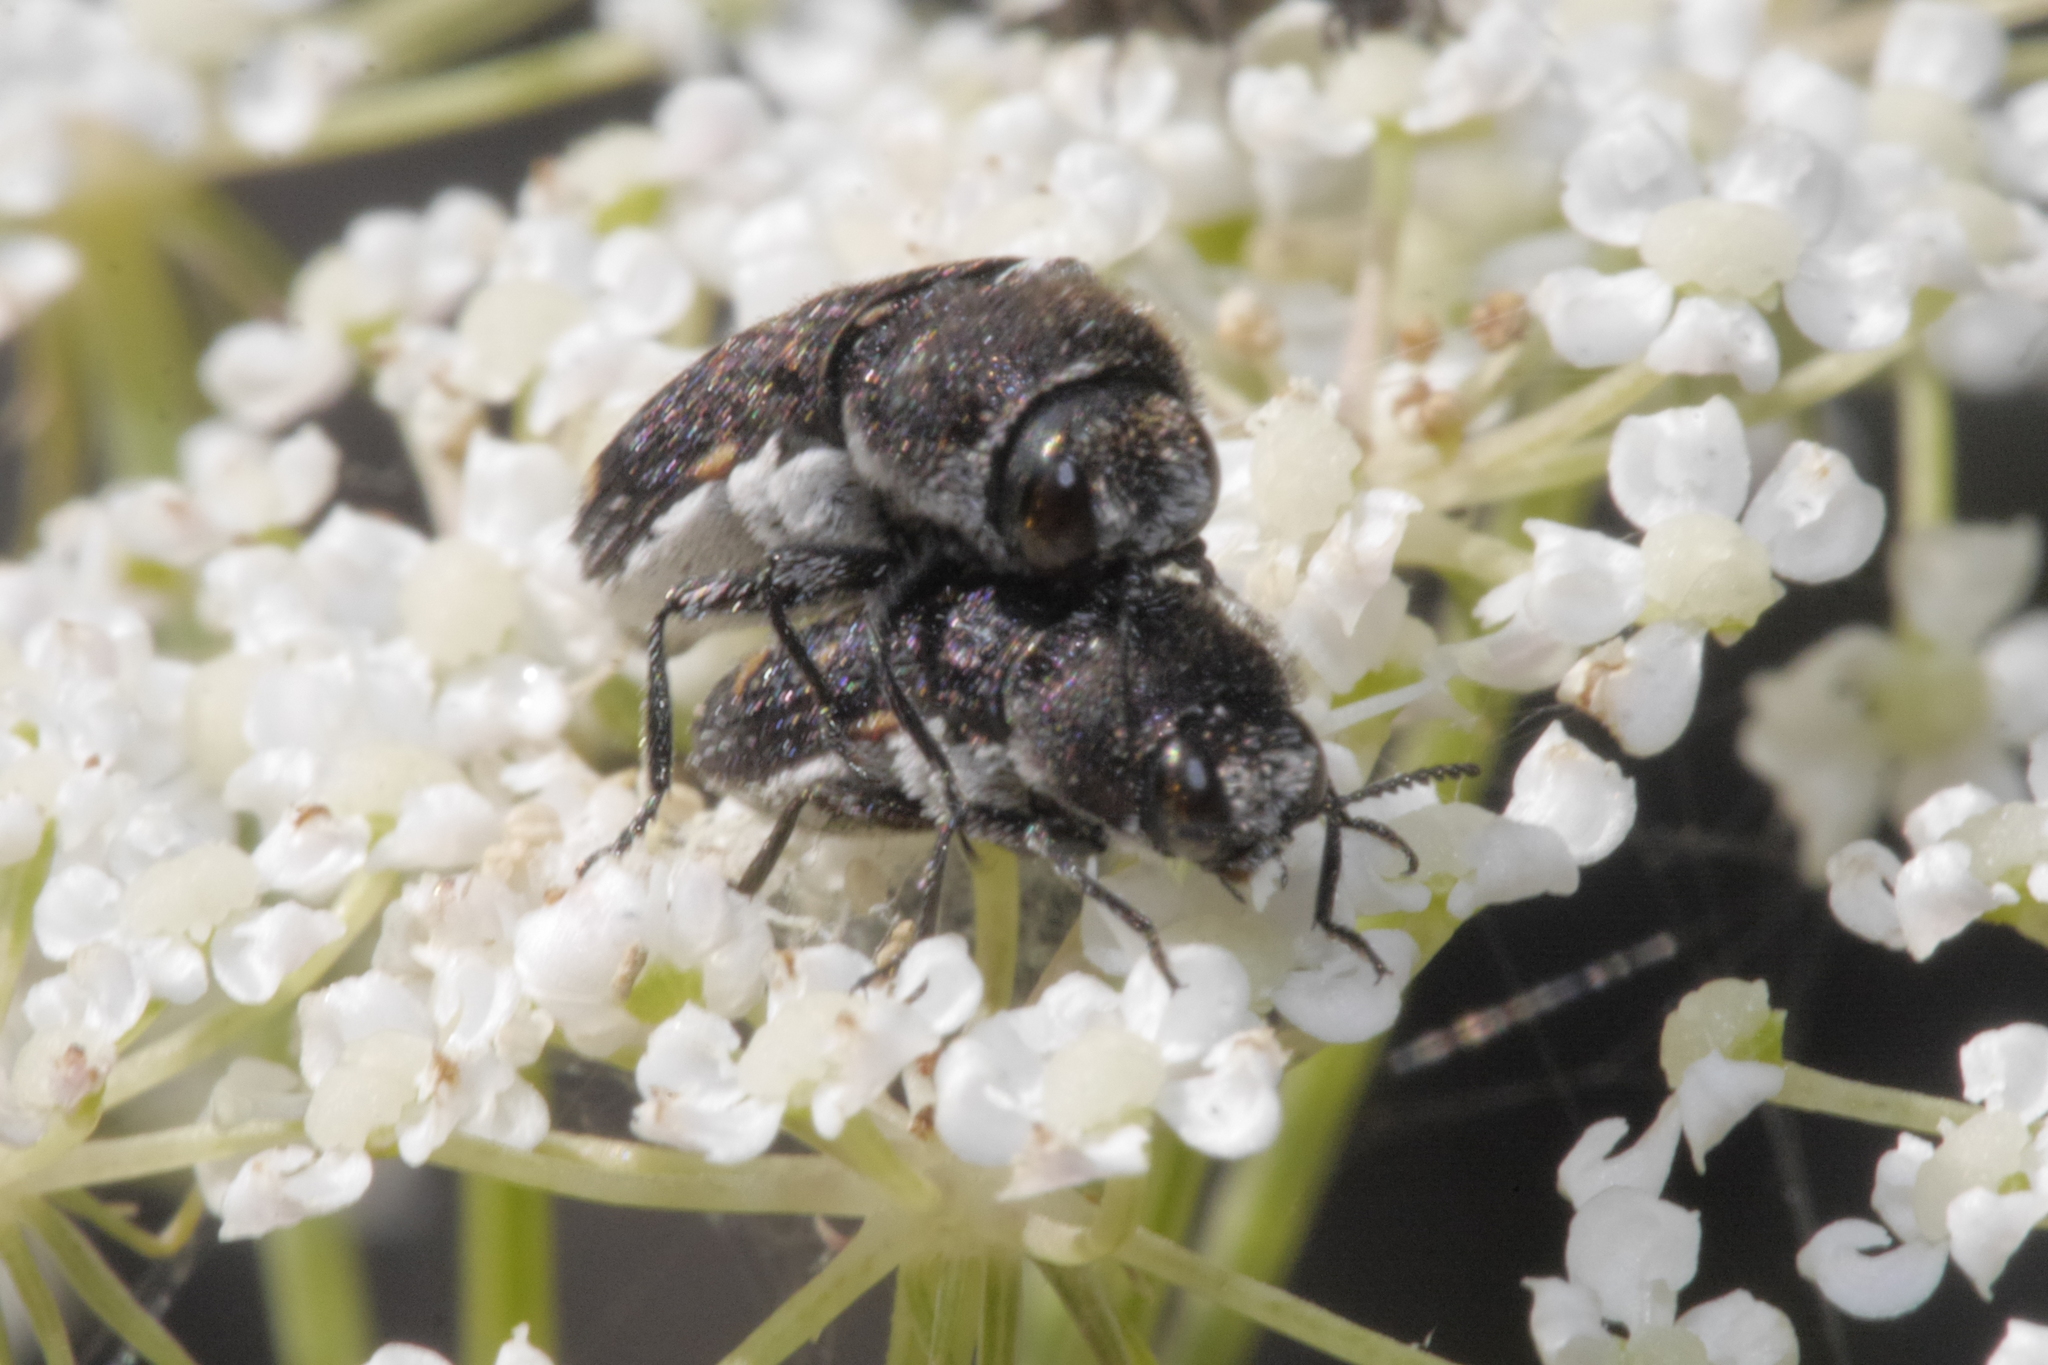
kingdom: Animalia
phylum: Arthropoda
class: Insecta
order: Coleoptera
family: Buprestidae
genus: Acmaeoderella
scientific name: Acmaeoderella flavofasciata
